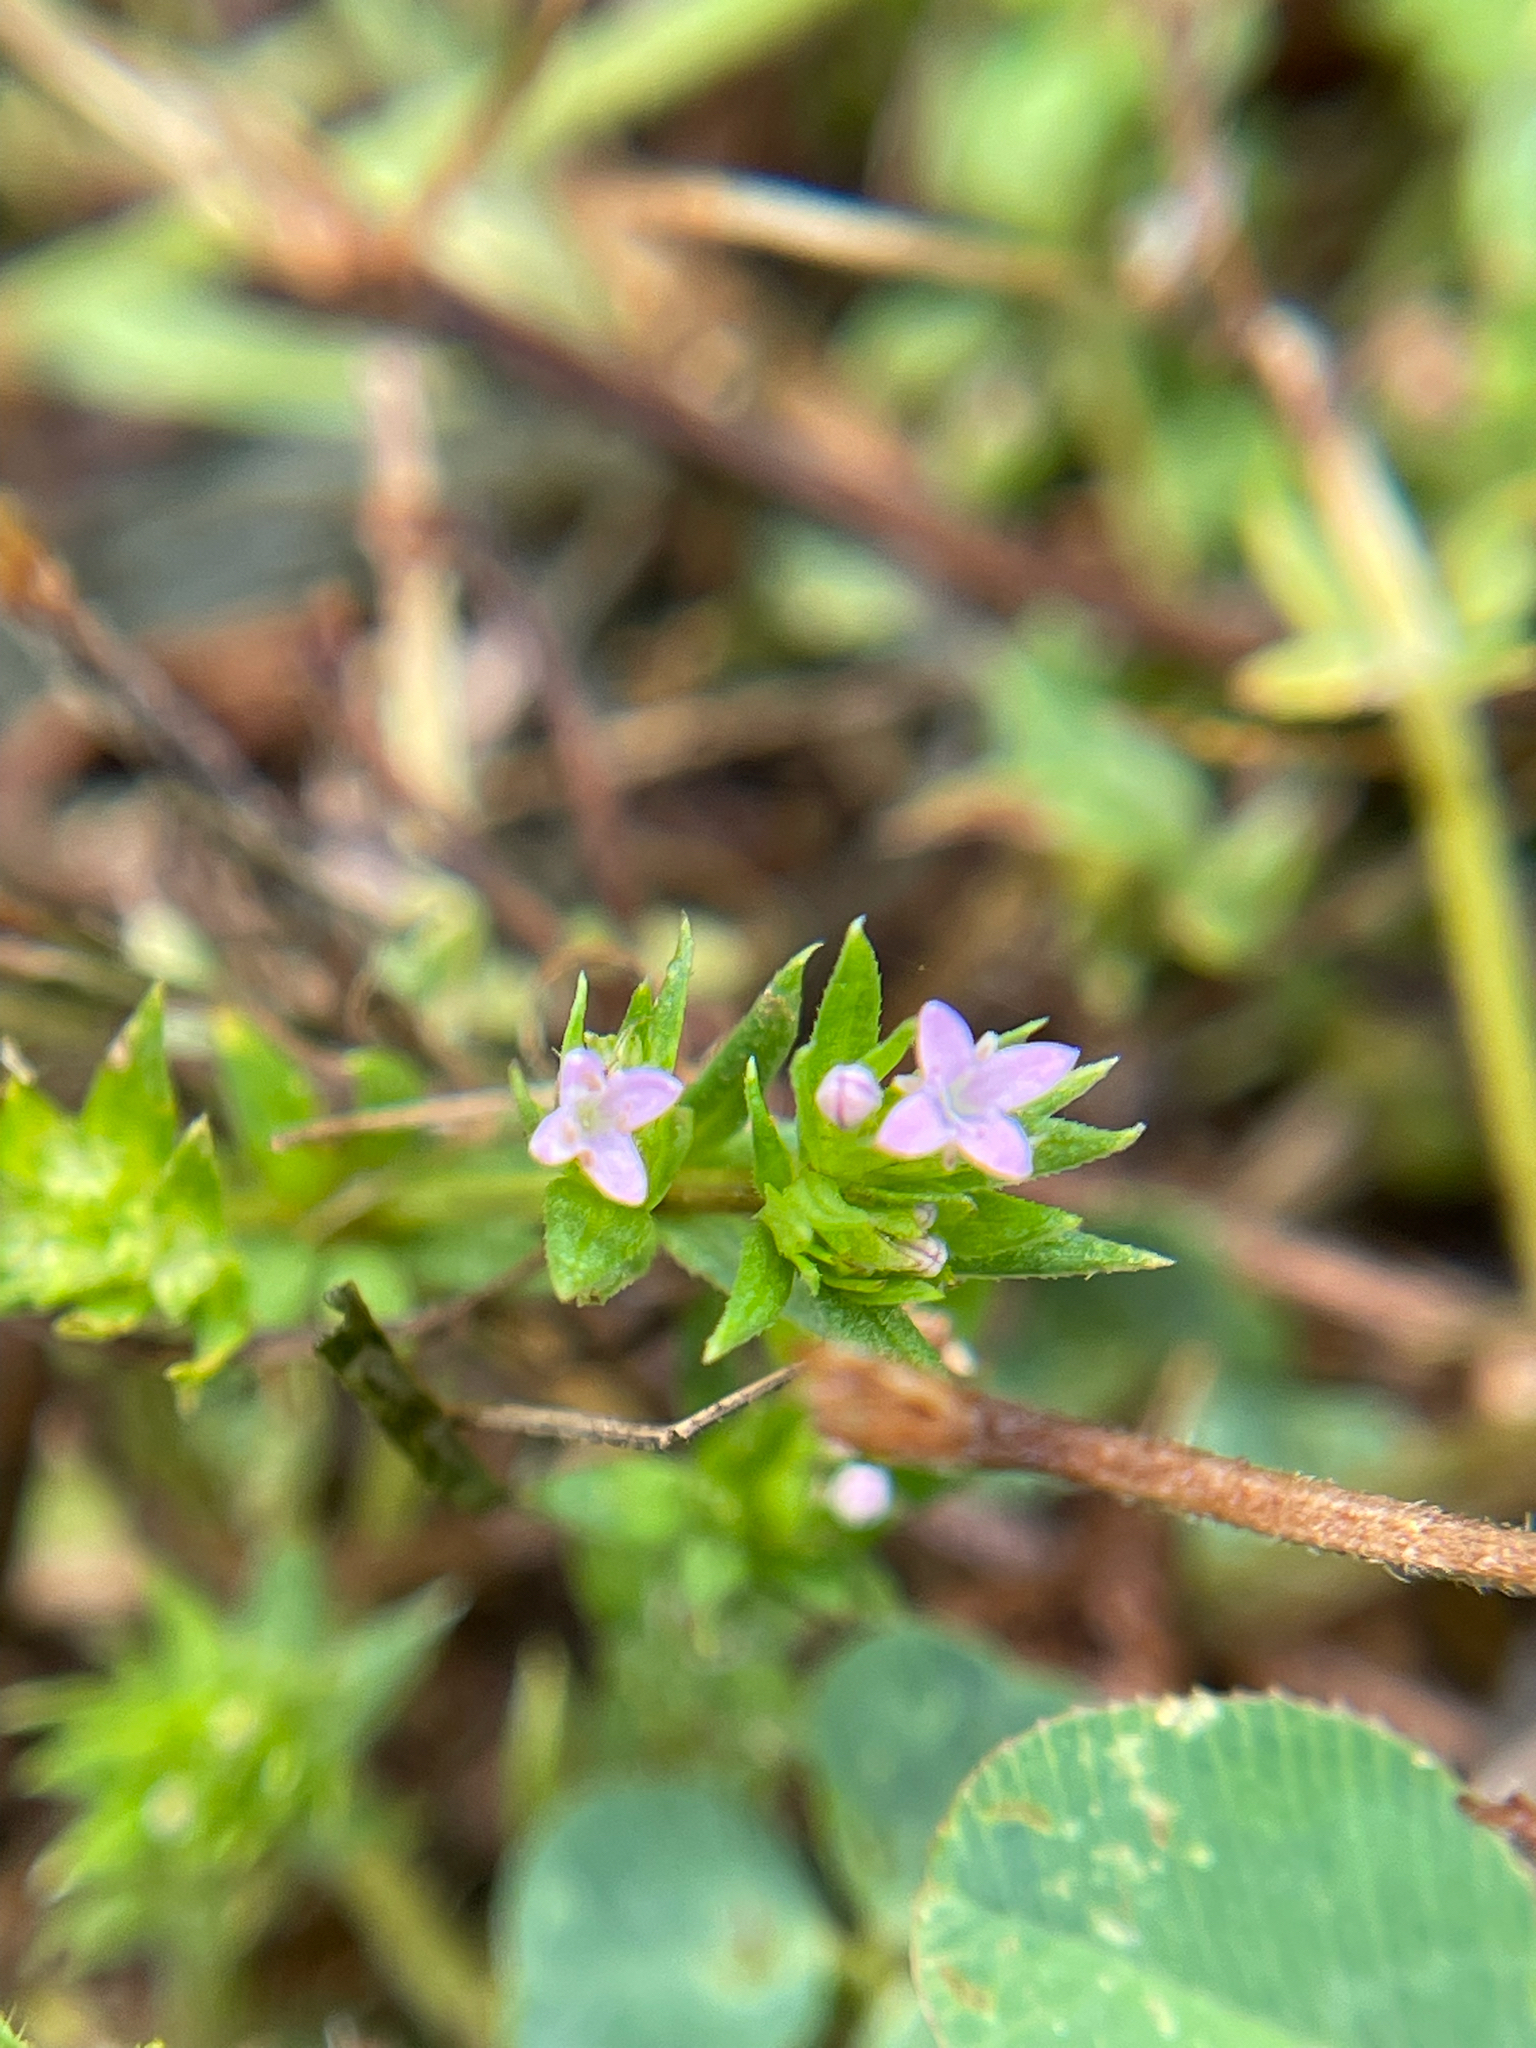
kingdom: Plantae
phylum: Tracheophyta
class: Magnoliopsida
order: Gentianales
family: Rubiaceae
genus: Sherardia
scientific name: Sherardia arvensis
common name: Field madder
